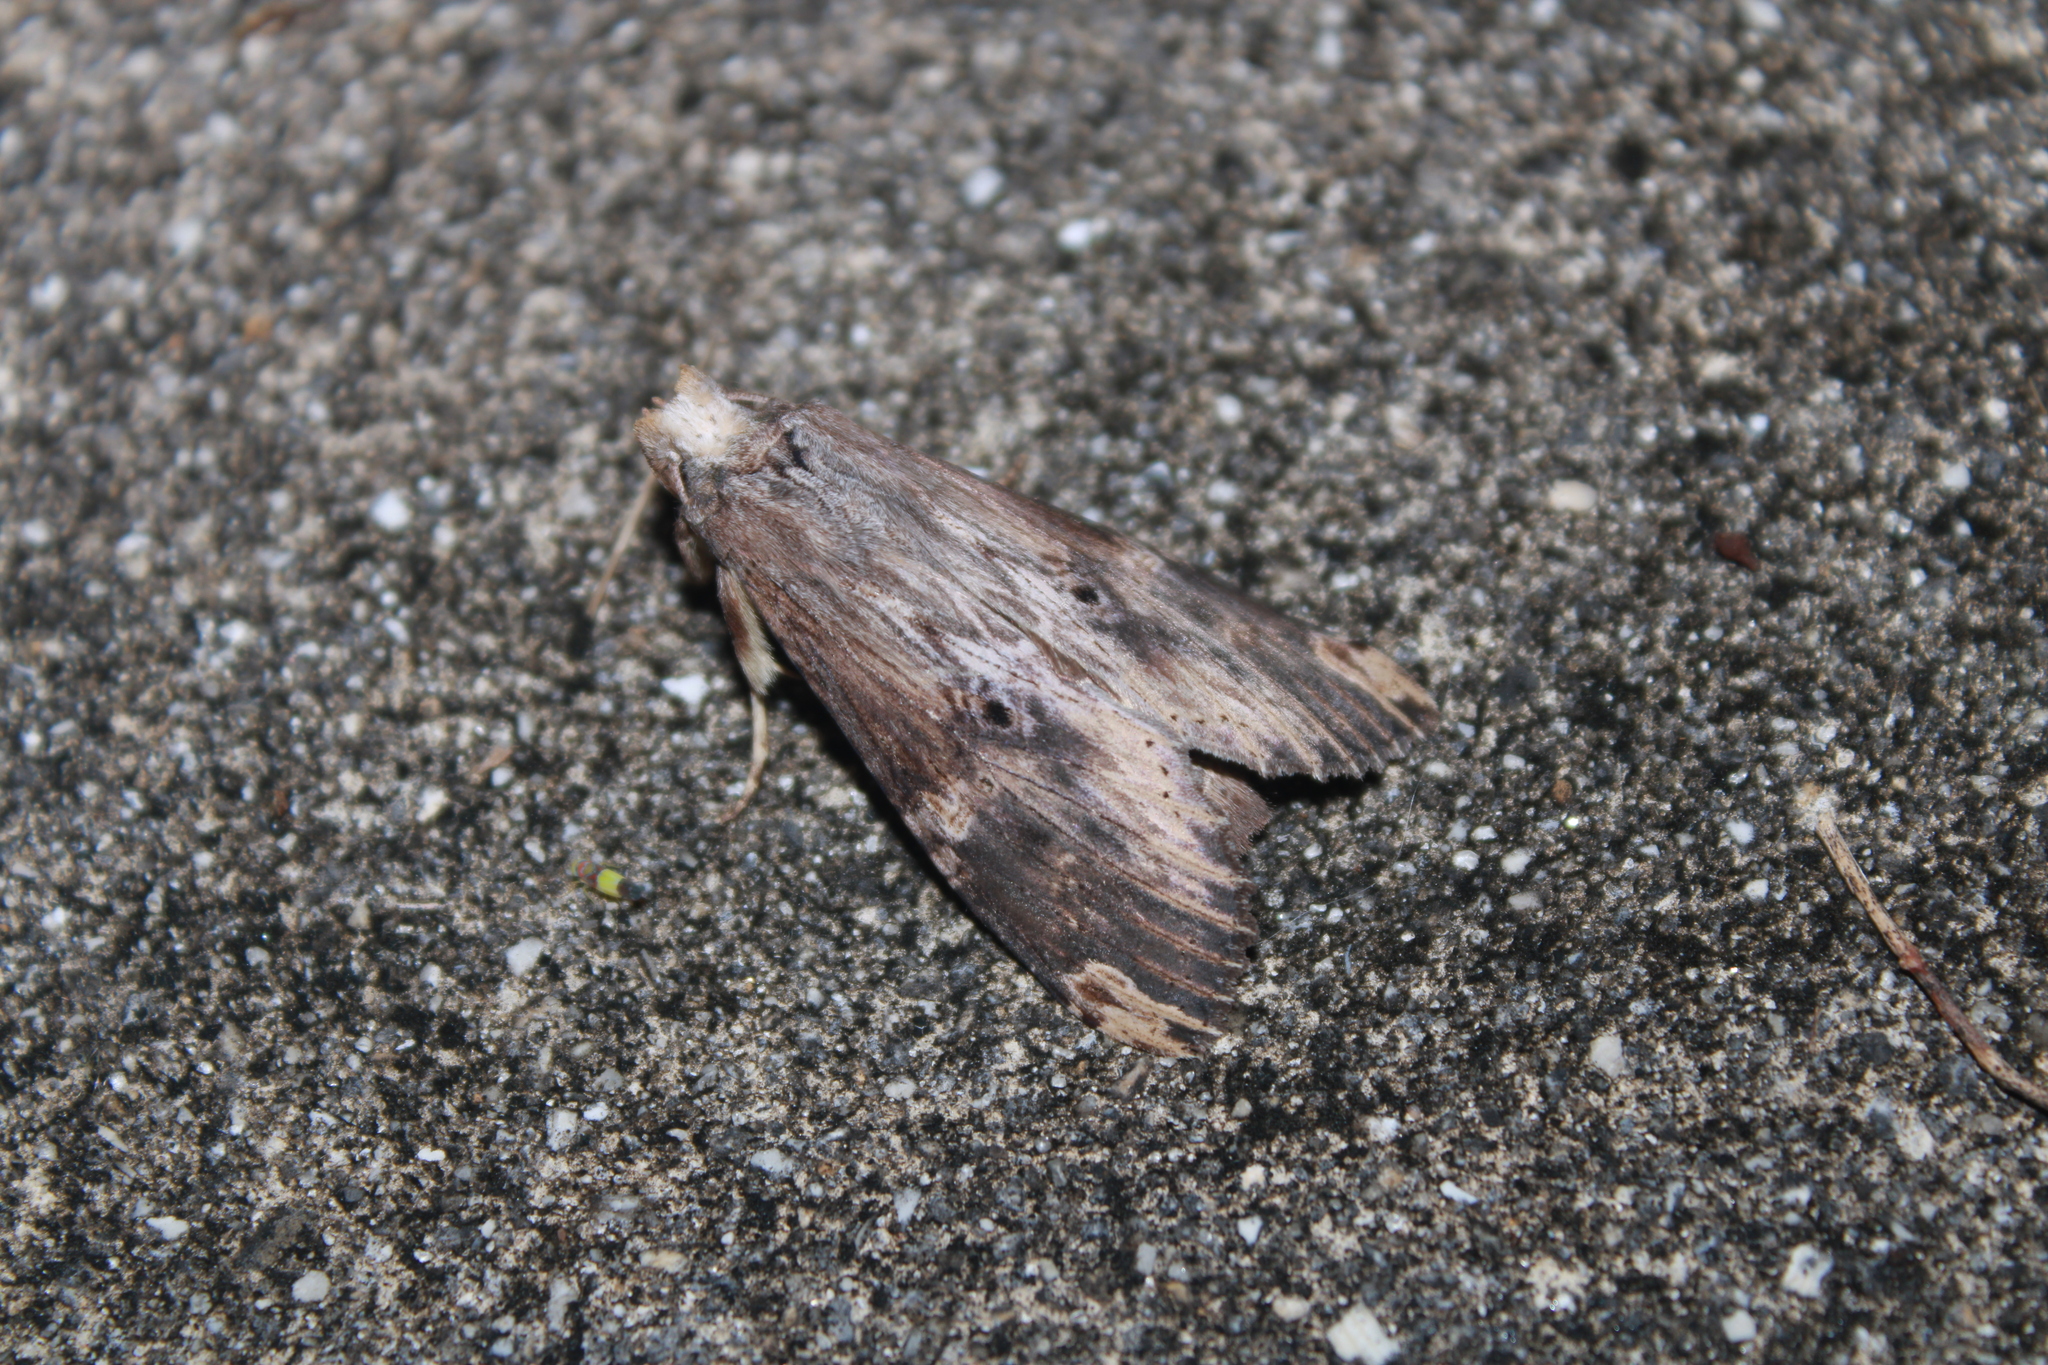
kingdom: Animalia
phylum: Arthropoda
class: Insecta
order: Lepidoptera
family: Notodontidae
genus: Nystalea
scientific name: Nystalea eutalanta
